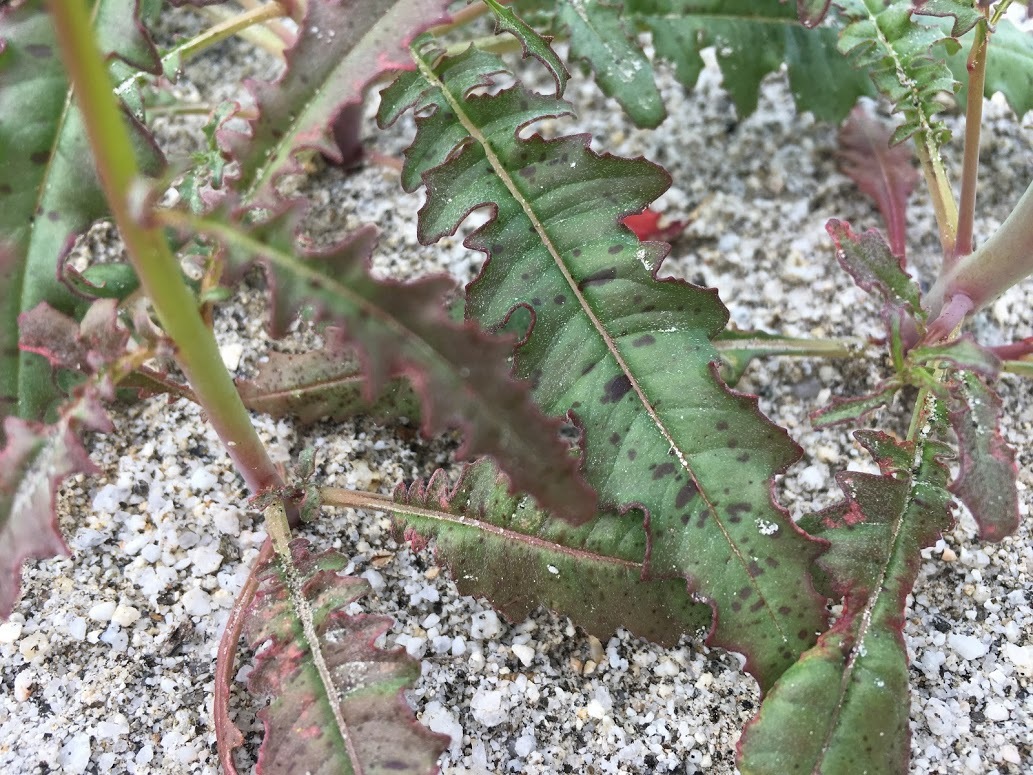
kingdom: Plantae
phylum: Tracheophyta
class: Magnoliopsida
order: Myrtales
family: Onagraceae
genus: Eulobus
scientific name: Eulobus californicus
